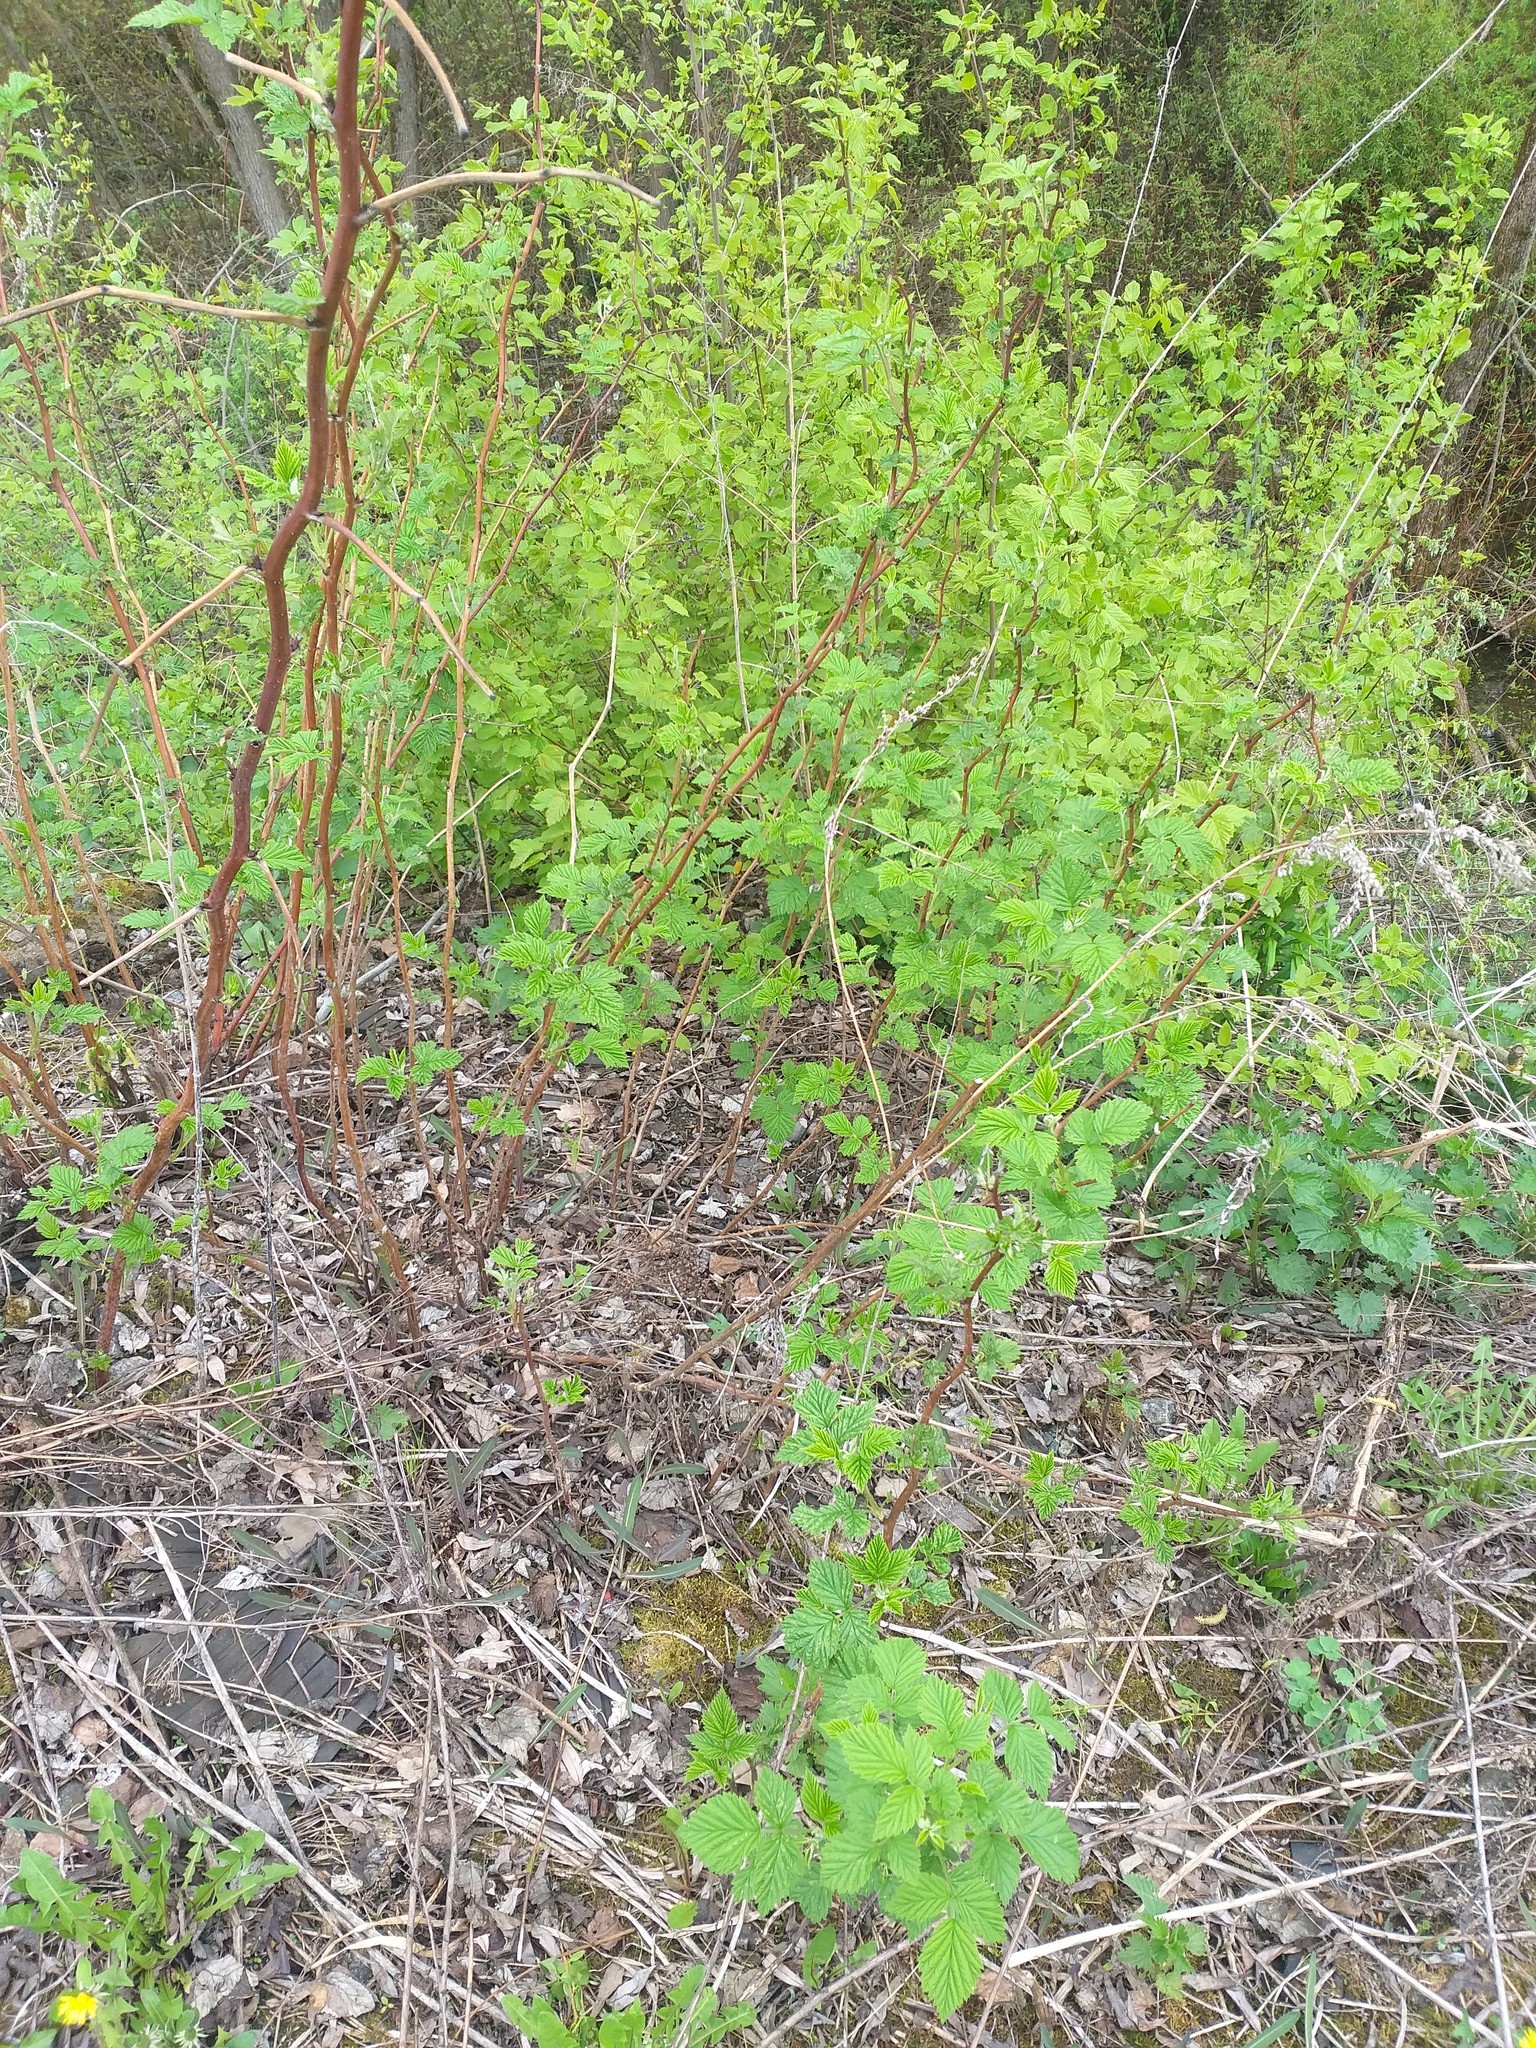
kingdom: Plantae
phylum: Tracheophyta
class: Magnoliopsida
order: Rosales
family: Rosaceae
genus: Rubus
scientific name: Rubus idaeus
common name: Raspberry
